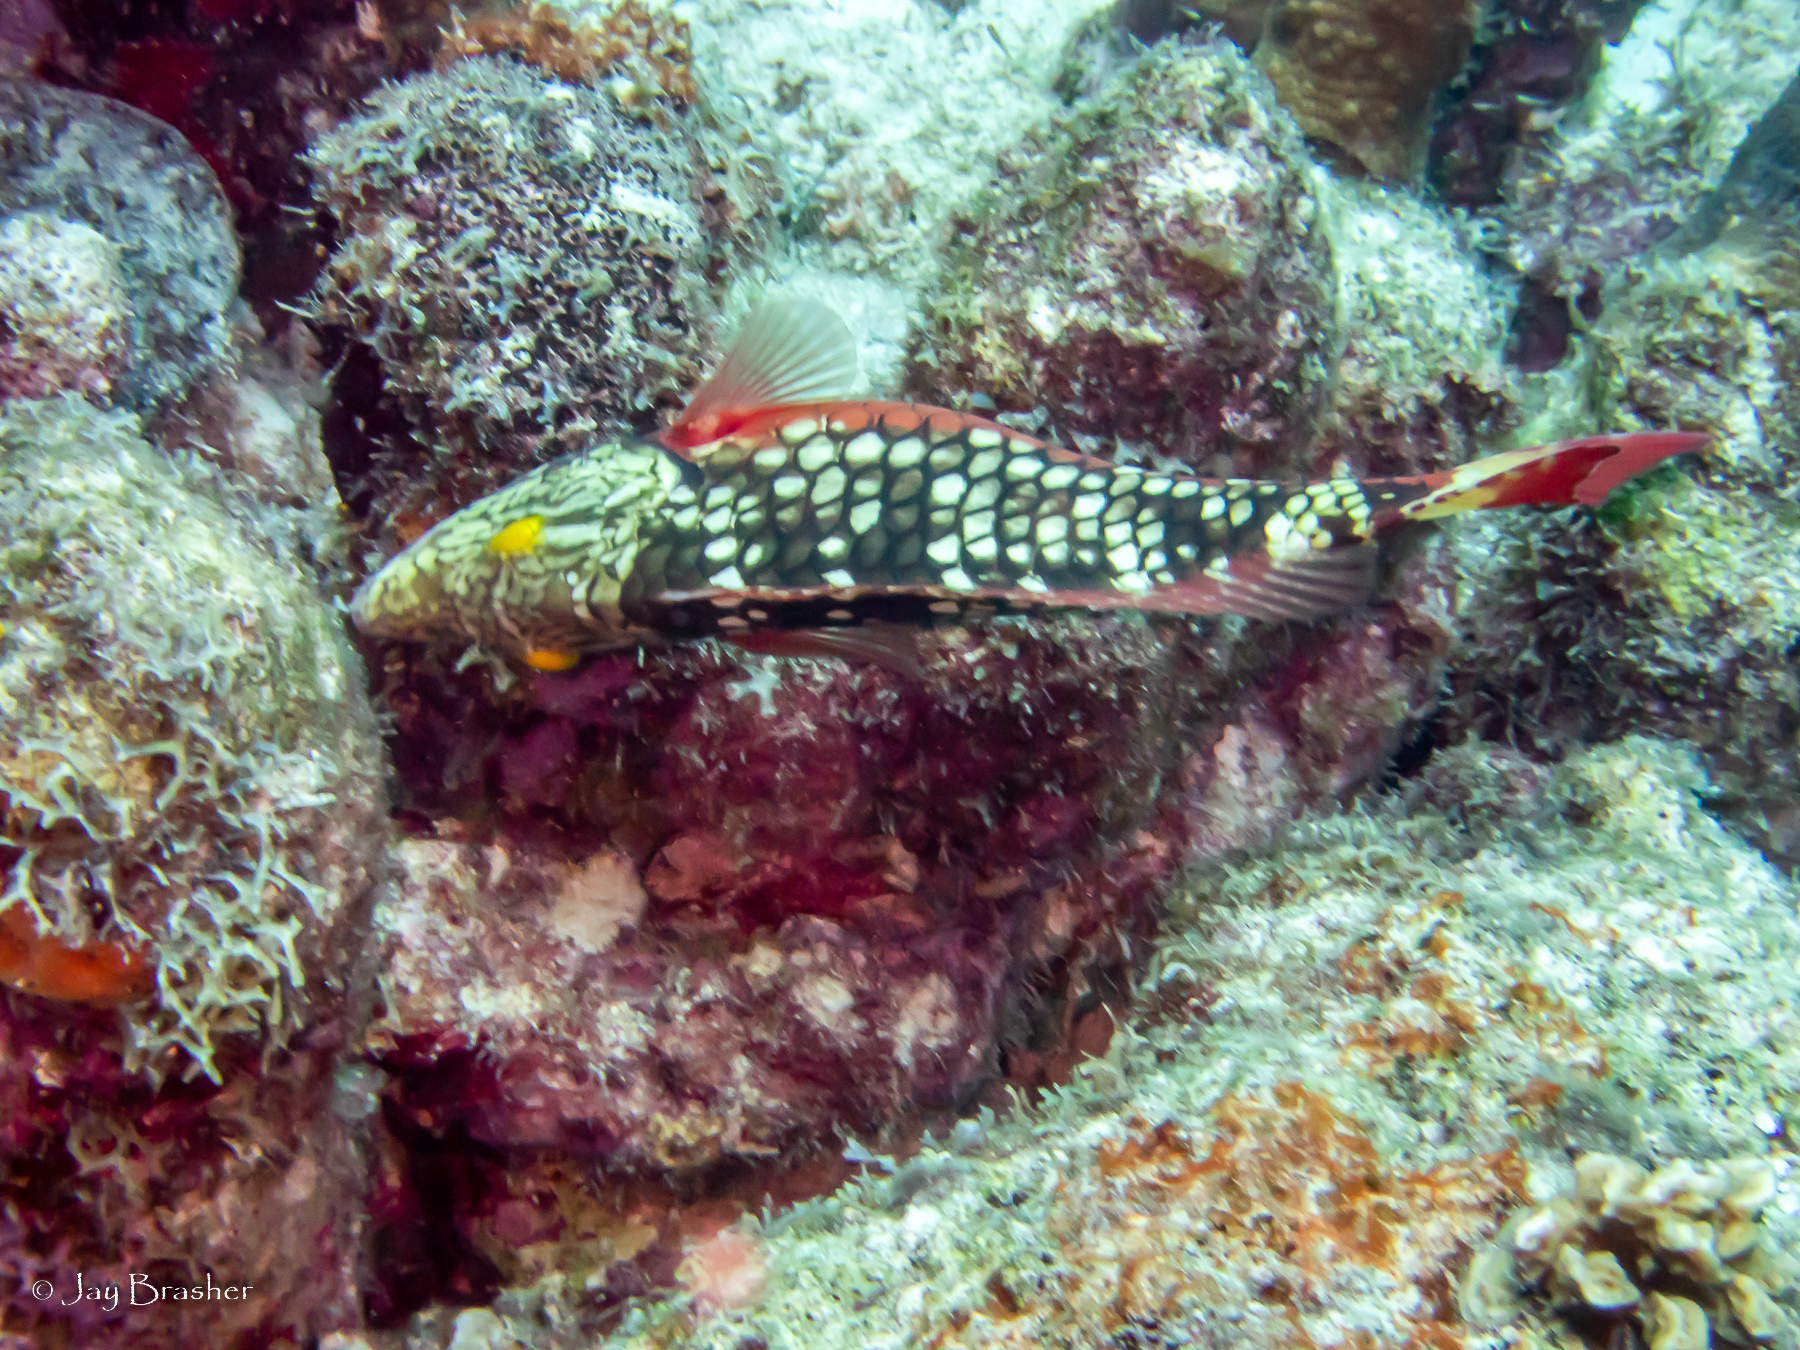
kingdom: Animalia
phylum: Chordata
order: Perciformes
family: Scaridae
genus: Sparisoma
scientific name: Sparisoma viride
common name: Stoplight parrotfish
